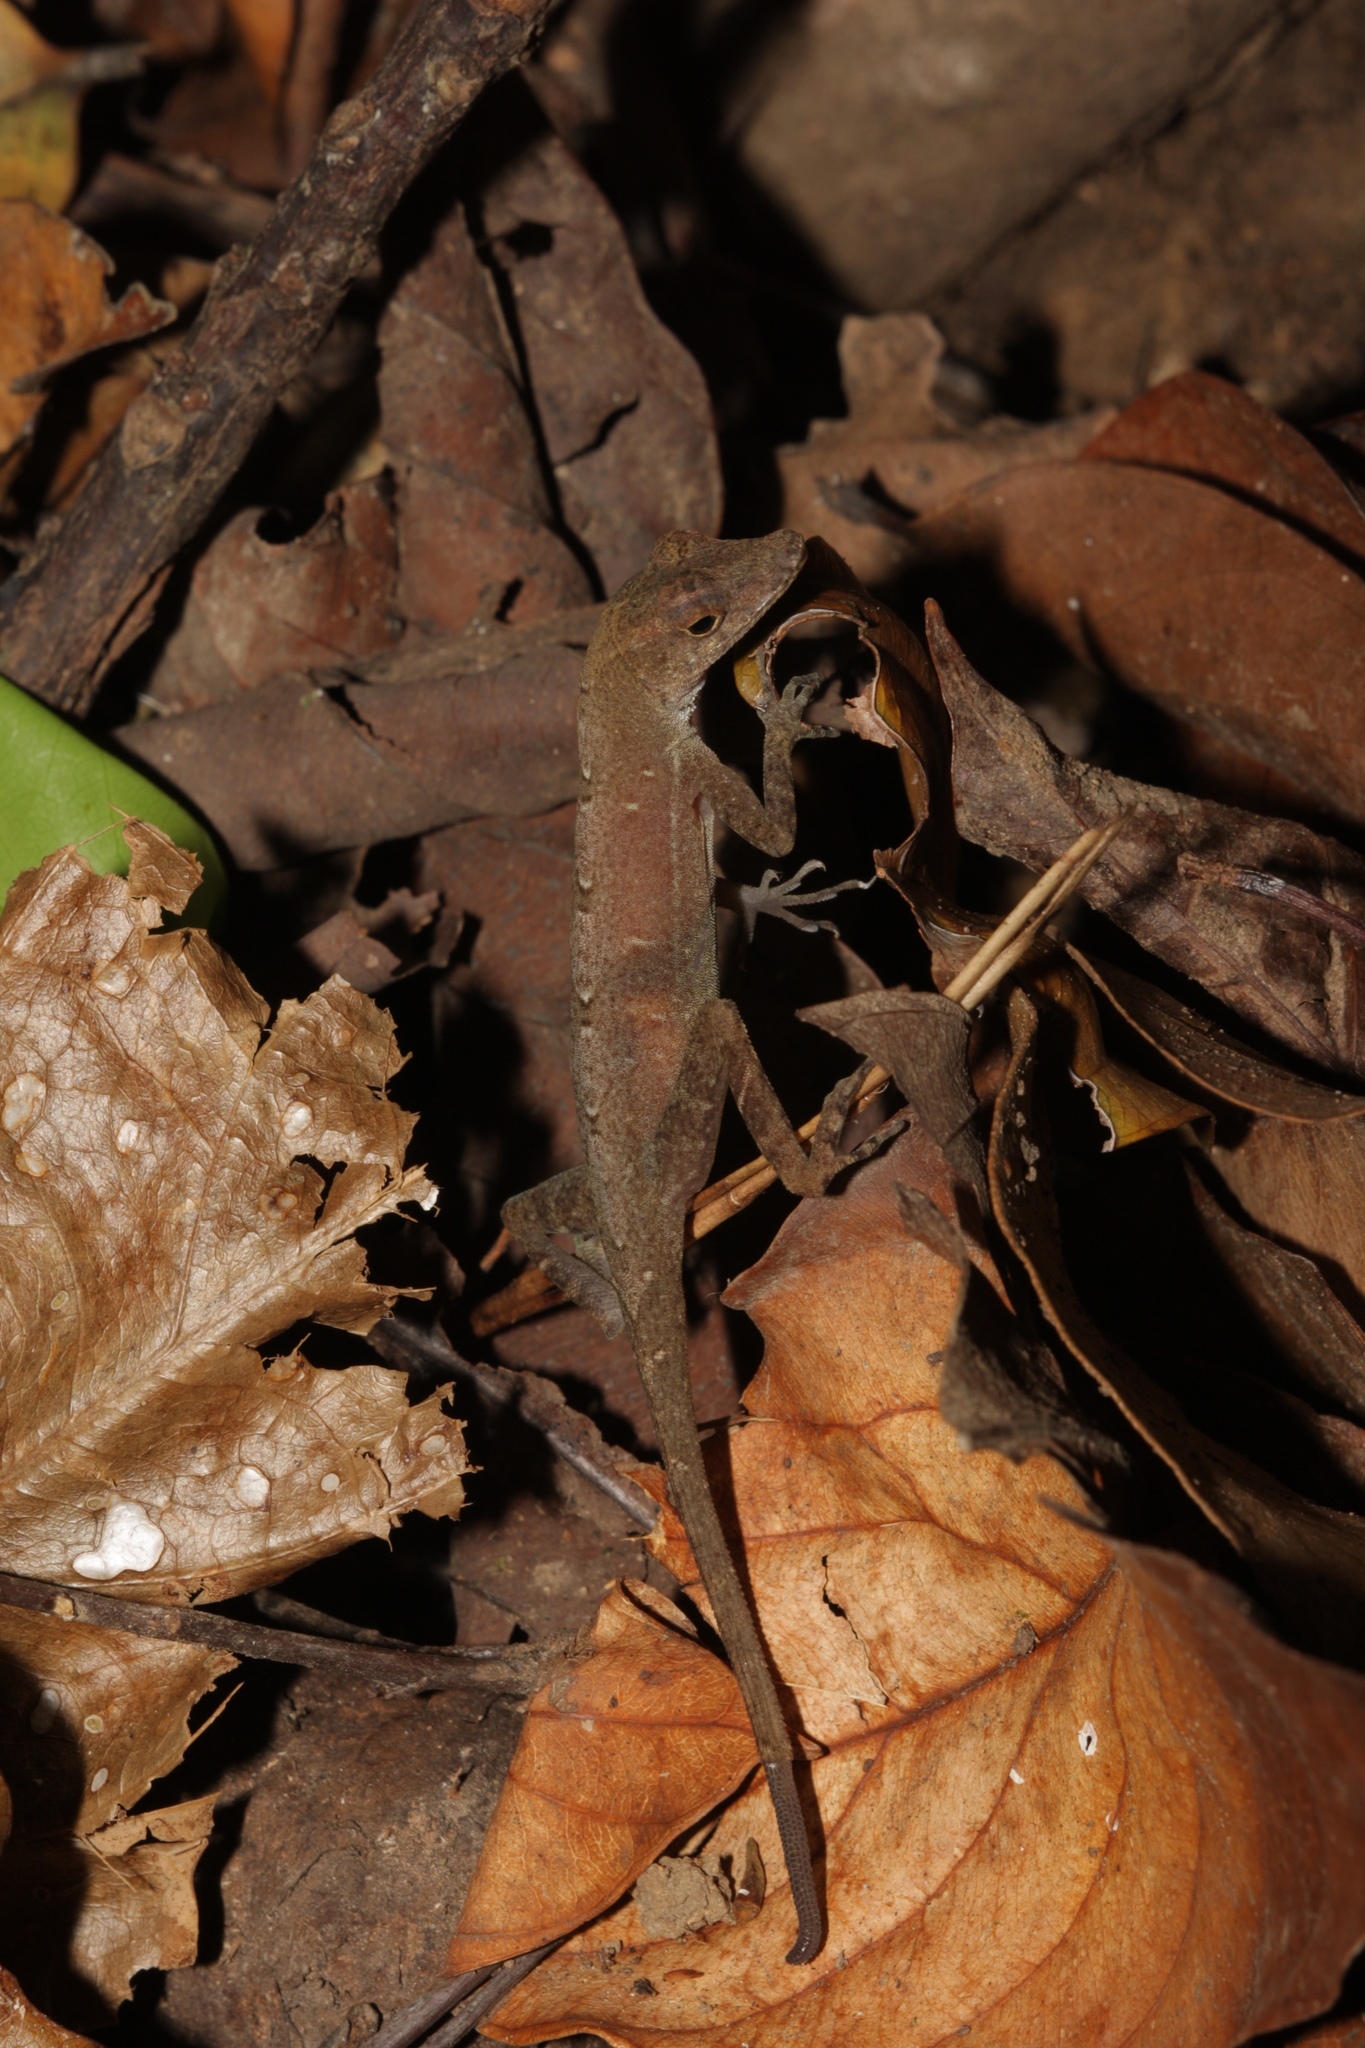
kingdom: Animalia
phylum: Chordata
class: Squamata
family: Dactyloidae
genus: Anolis
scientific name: Anolis osa
